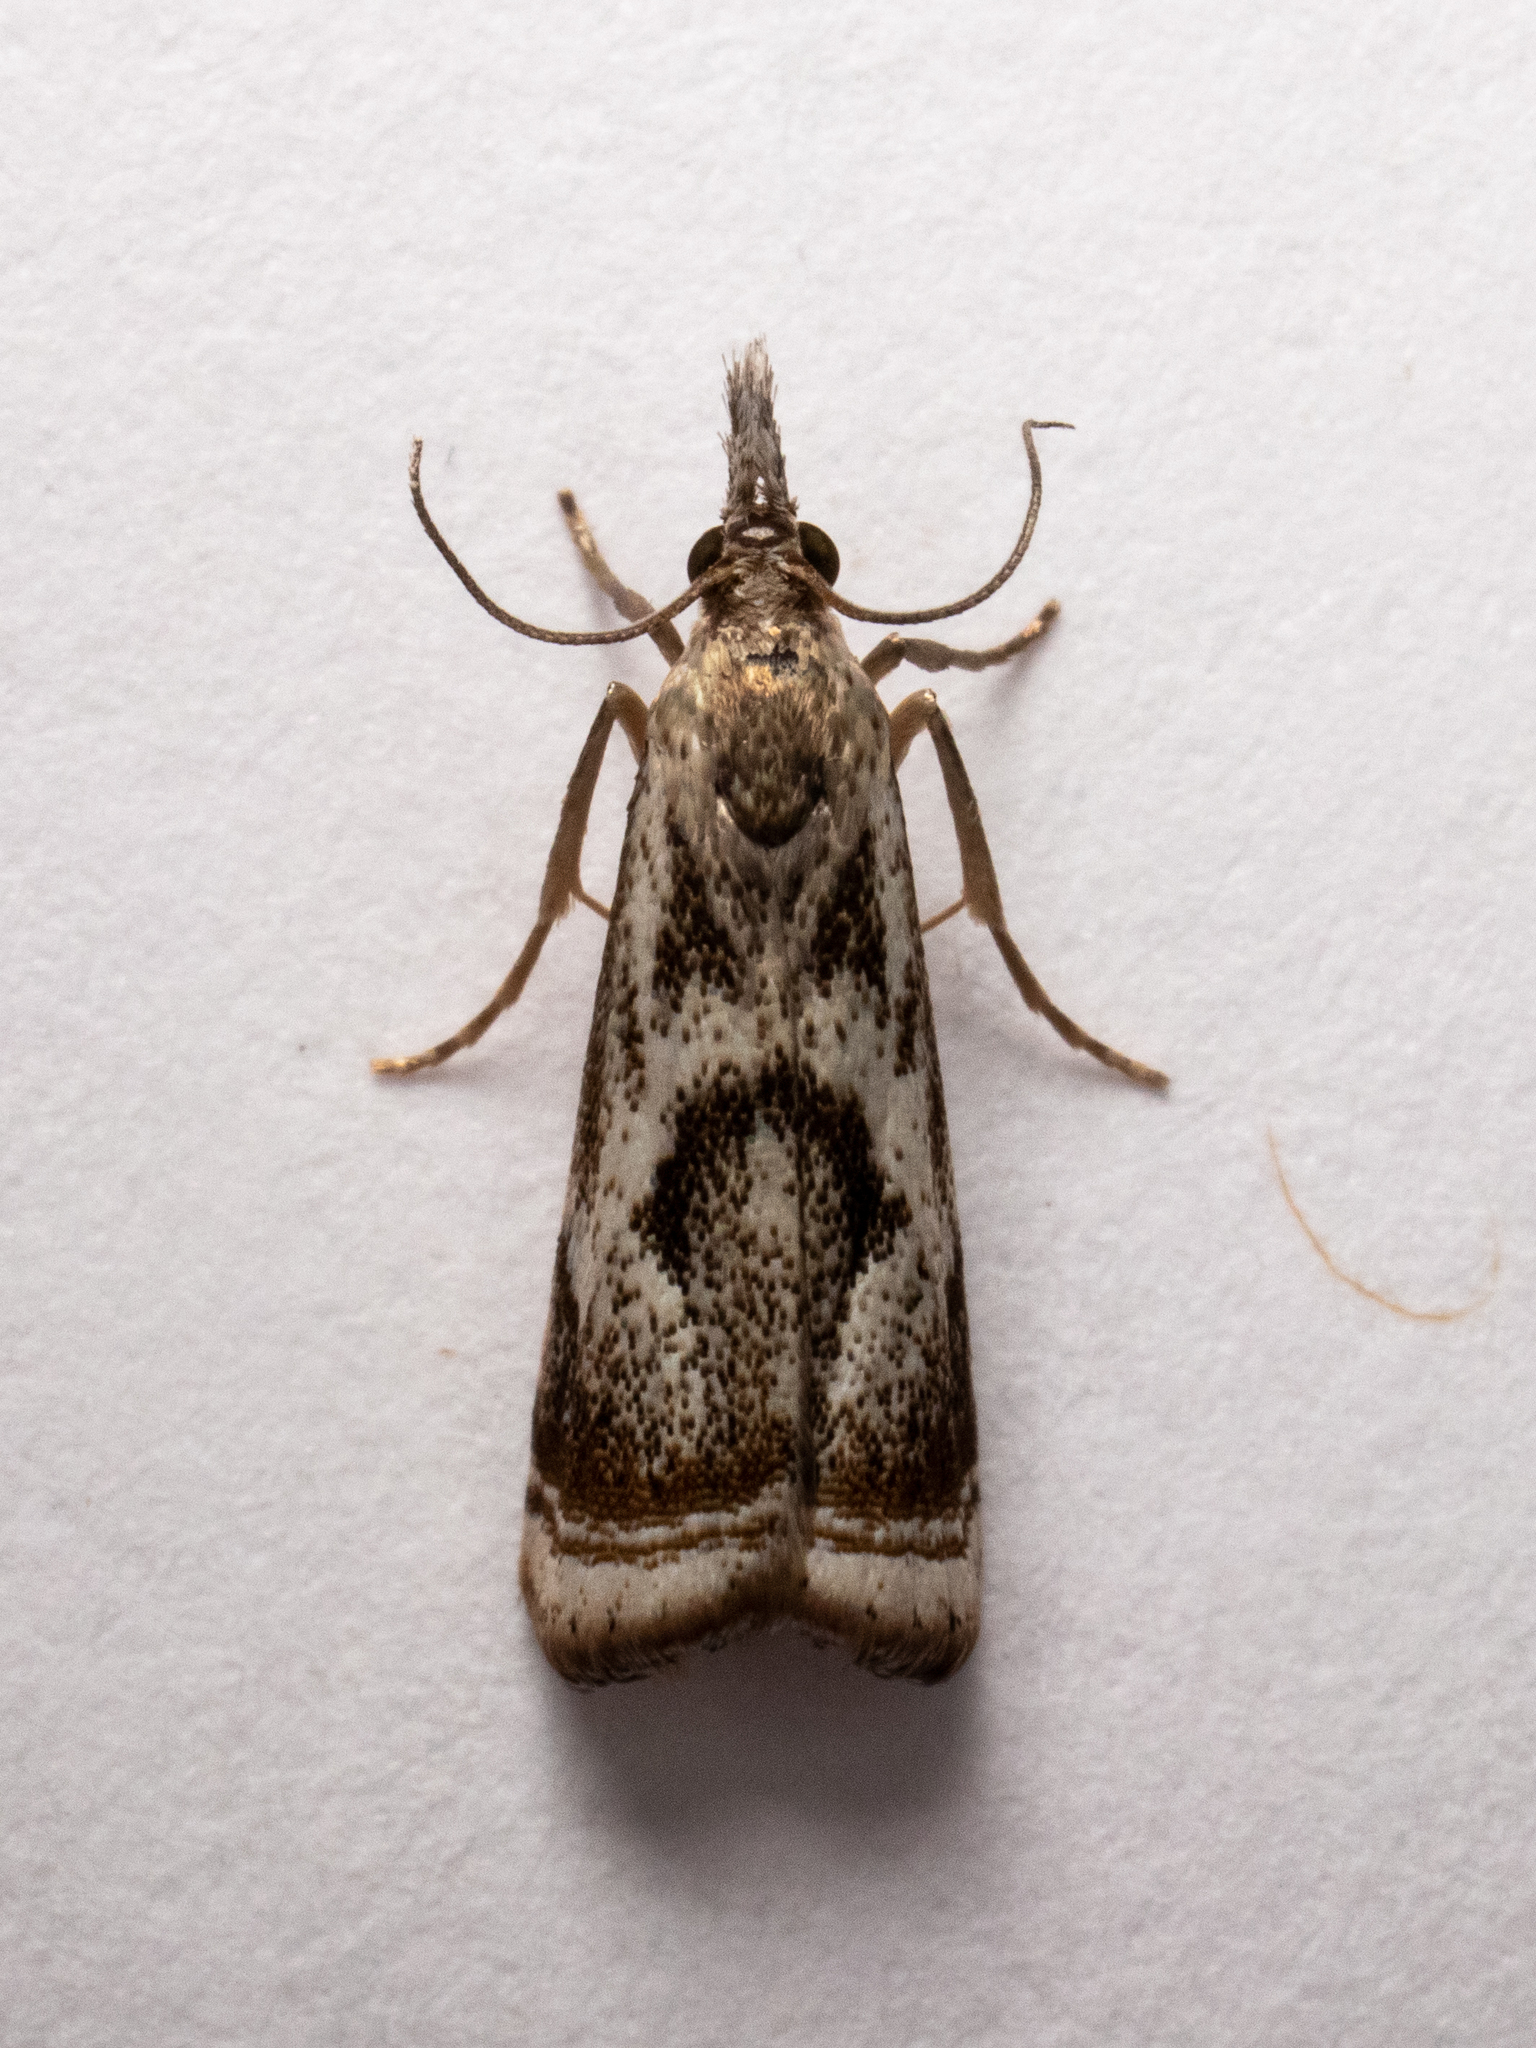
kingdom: Animalia
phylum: Arthropoda
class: Insecta
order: Lepidoptera
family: Crambidae
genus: Microcrambus
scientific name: Microcrambus elegans
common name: Elegant grass-veneer
